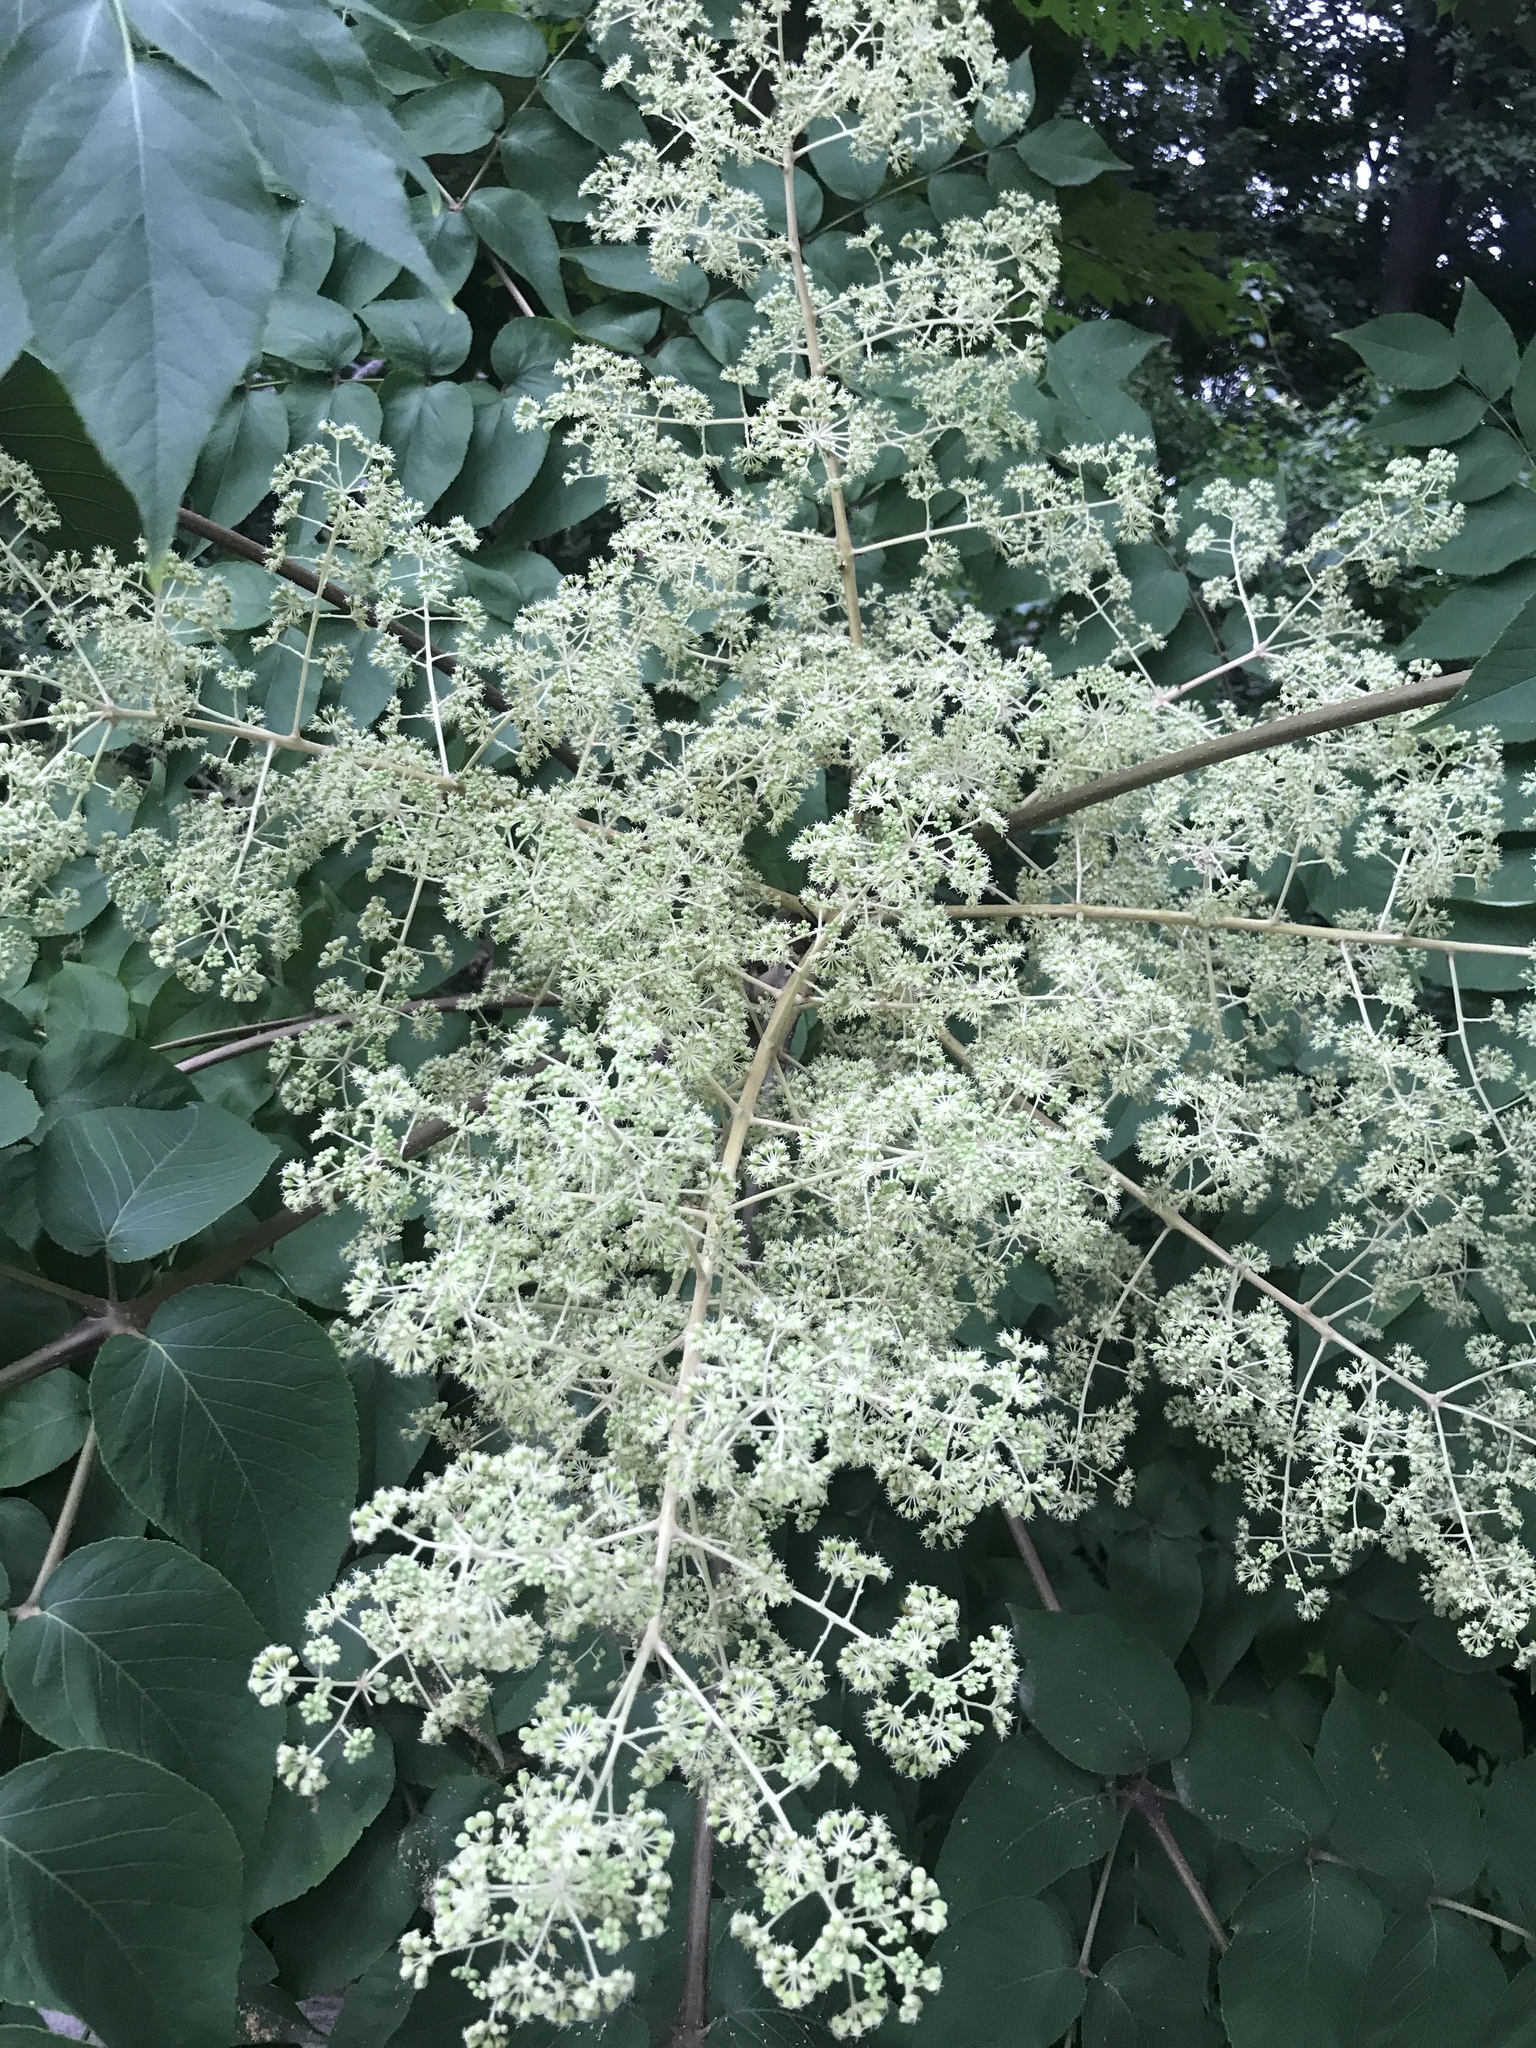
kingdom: Plantae
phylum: Tracheophyta
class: Magnoliopsida
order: Apiales
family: Araliaceae
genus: Aralia
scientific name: Aralia elata
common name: Japanese angelica-tree
